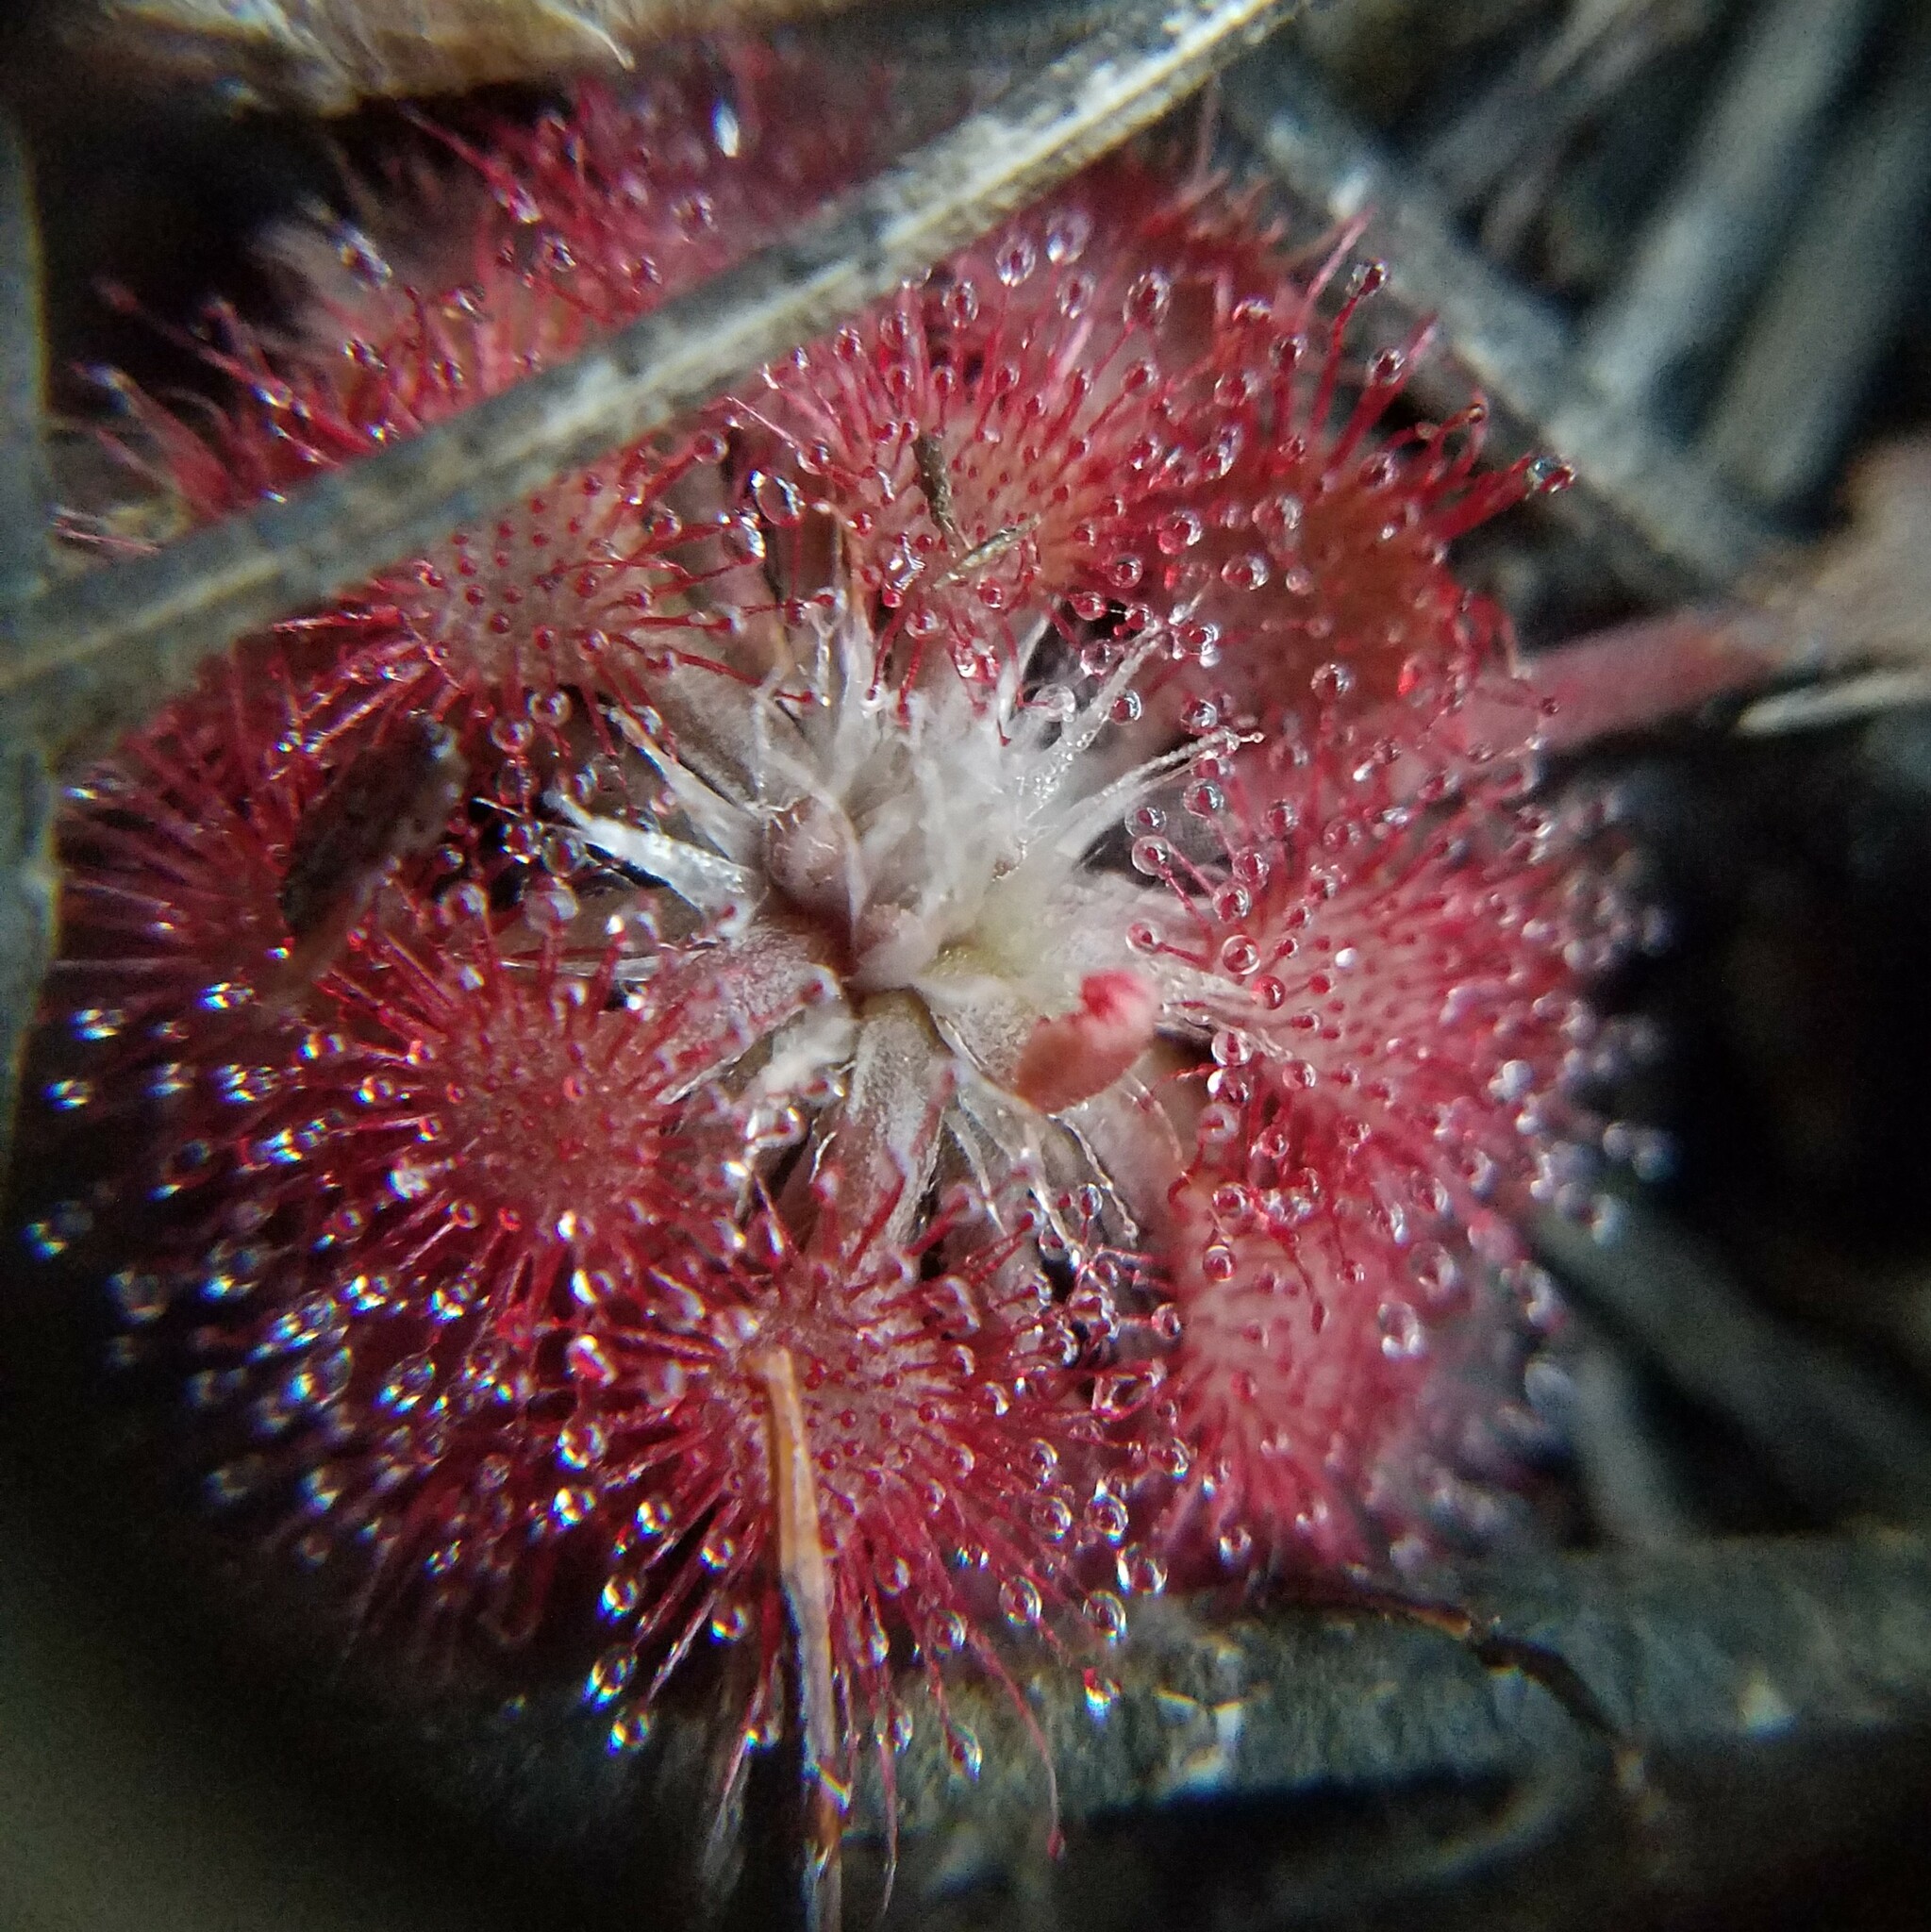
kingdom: Plantae
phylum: Tracheophyta
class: Magnoliopsida
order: Caryophyllales
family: Droseraceae
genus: Drosera
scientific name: Drosera capillaris
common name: Pink sundew
